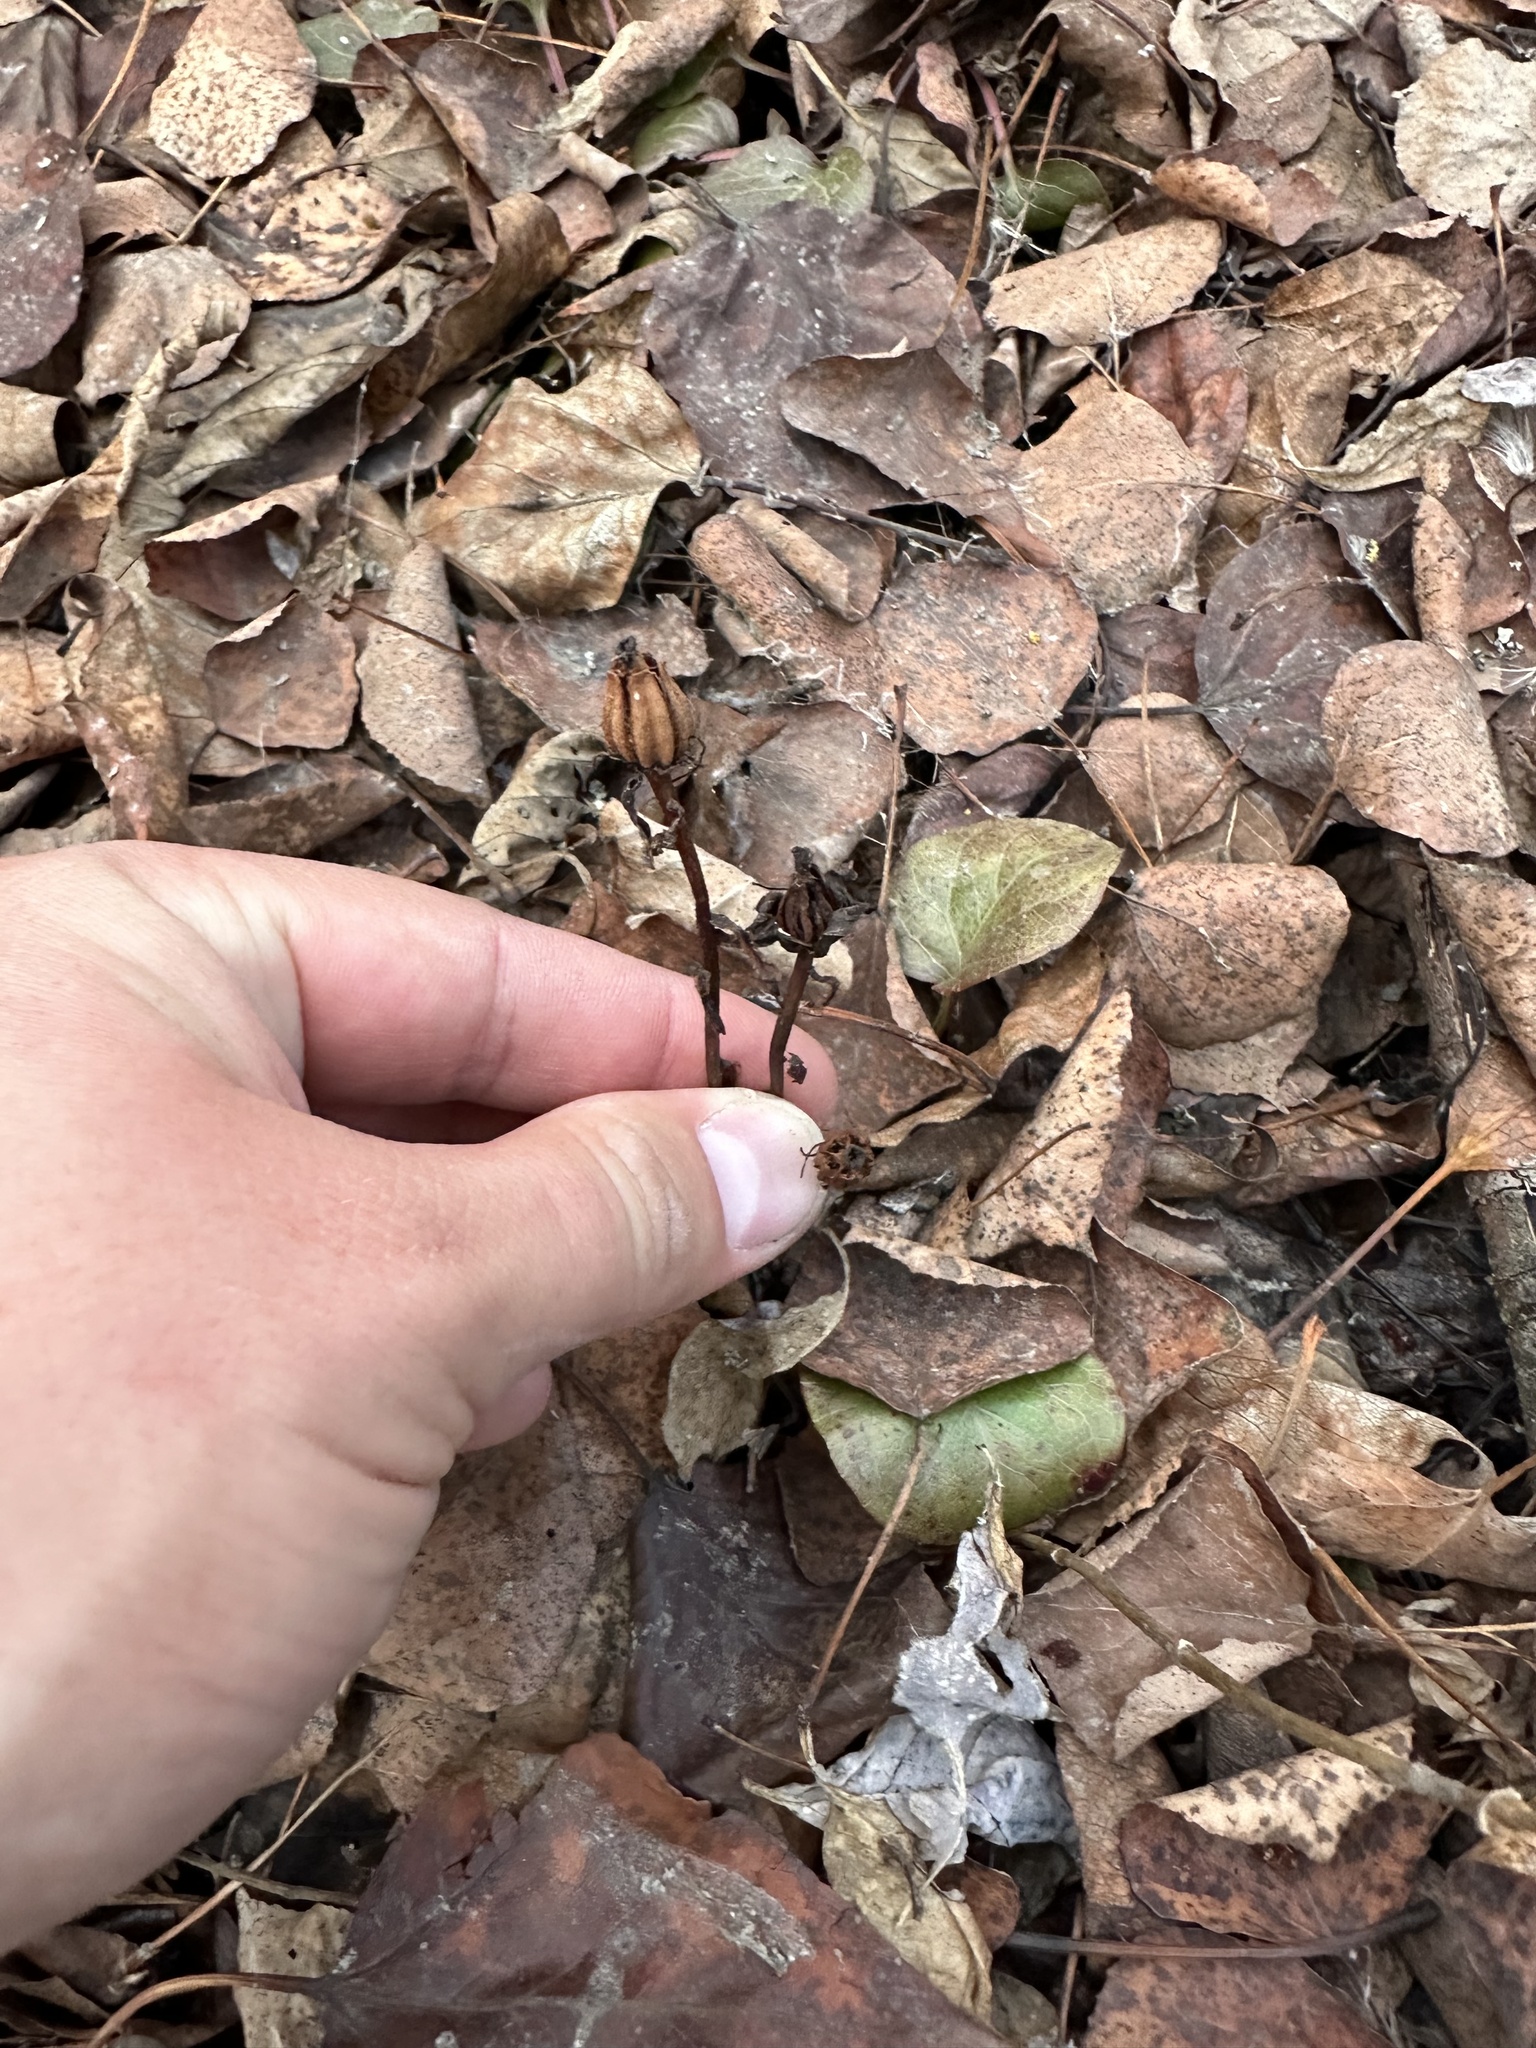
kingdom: Plantae
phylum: Tracheophyta
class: Magnoliopsida
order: Ericales
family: Ericaceae
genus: Monotropa
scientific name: Monotropa uniflora
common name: Convulsion root
